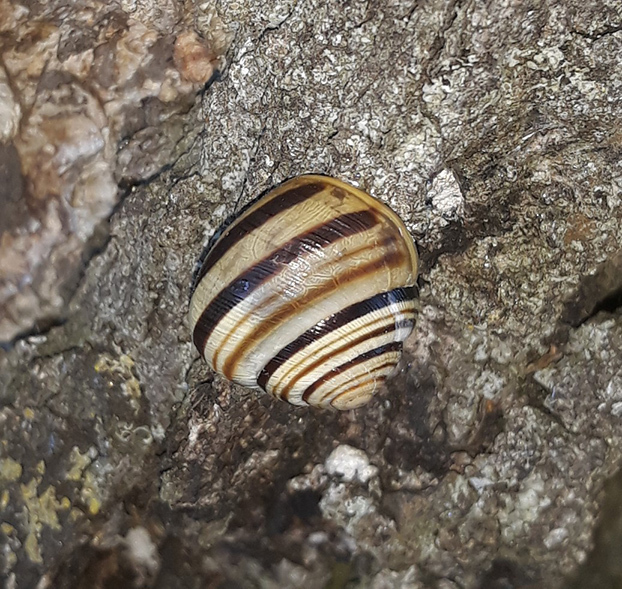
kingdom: Animalia
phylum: Mollusca
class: Gastropoda
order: Stylommatophora
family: Helicidae
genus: Caucasotachea
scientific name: Caucasotachea vindobonensis
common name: European helicid land snail
